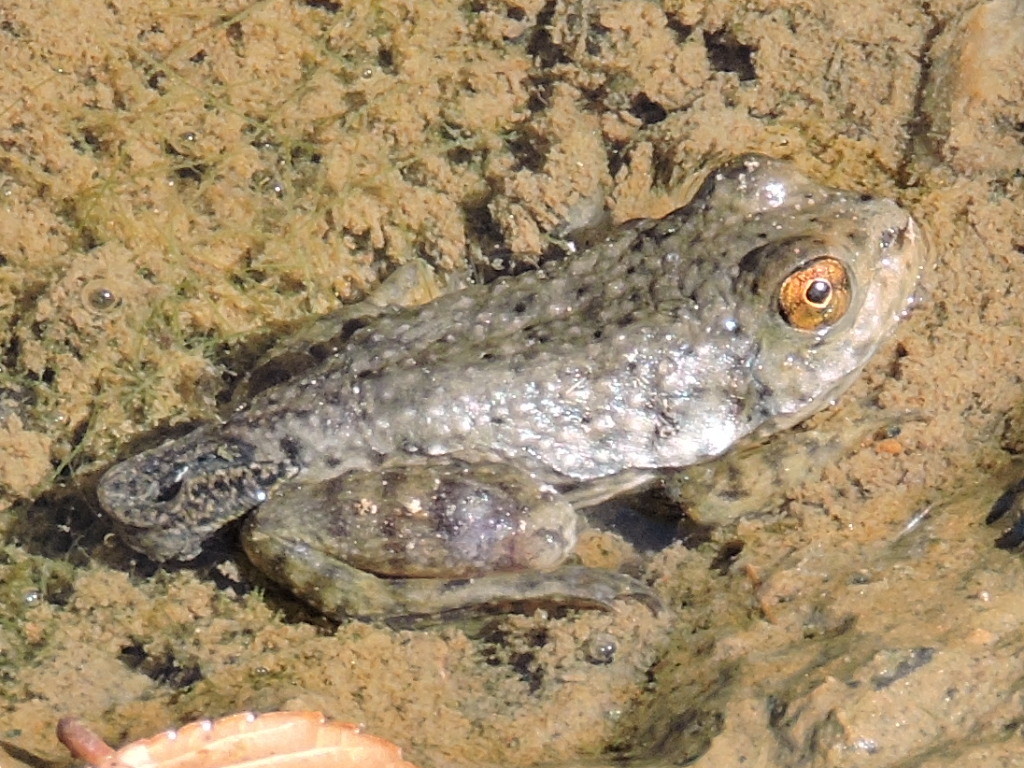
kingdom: Animalia
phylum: Chordata
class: Amphibia
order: Anura
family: Ranidae
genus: Lithobates
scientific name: Lithobates catesbeianus
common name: American bullfrog
